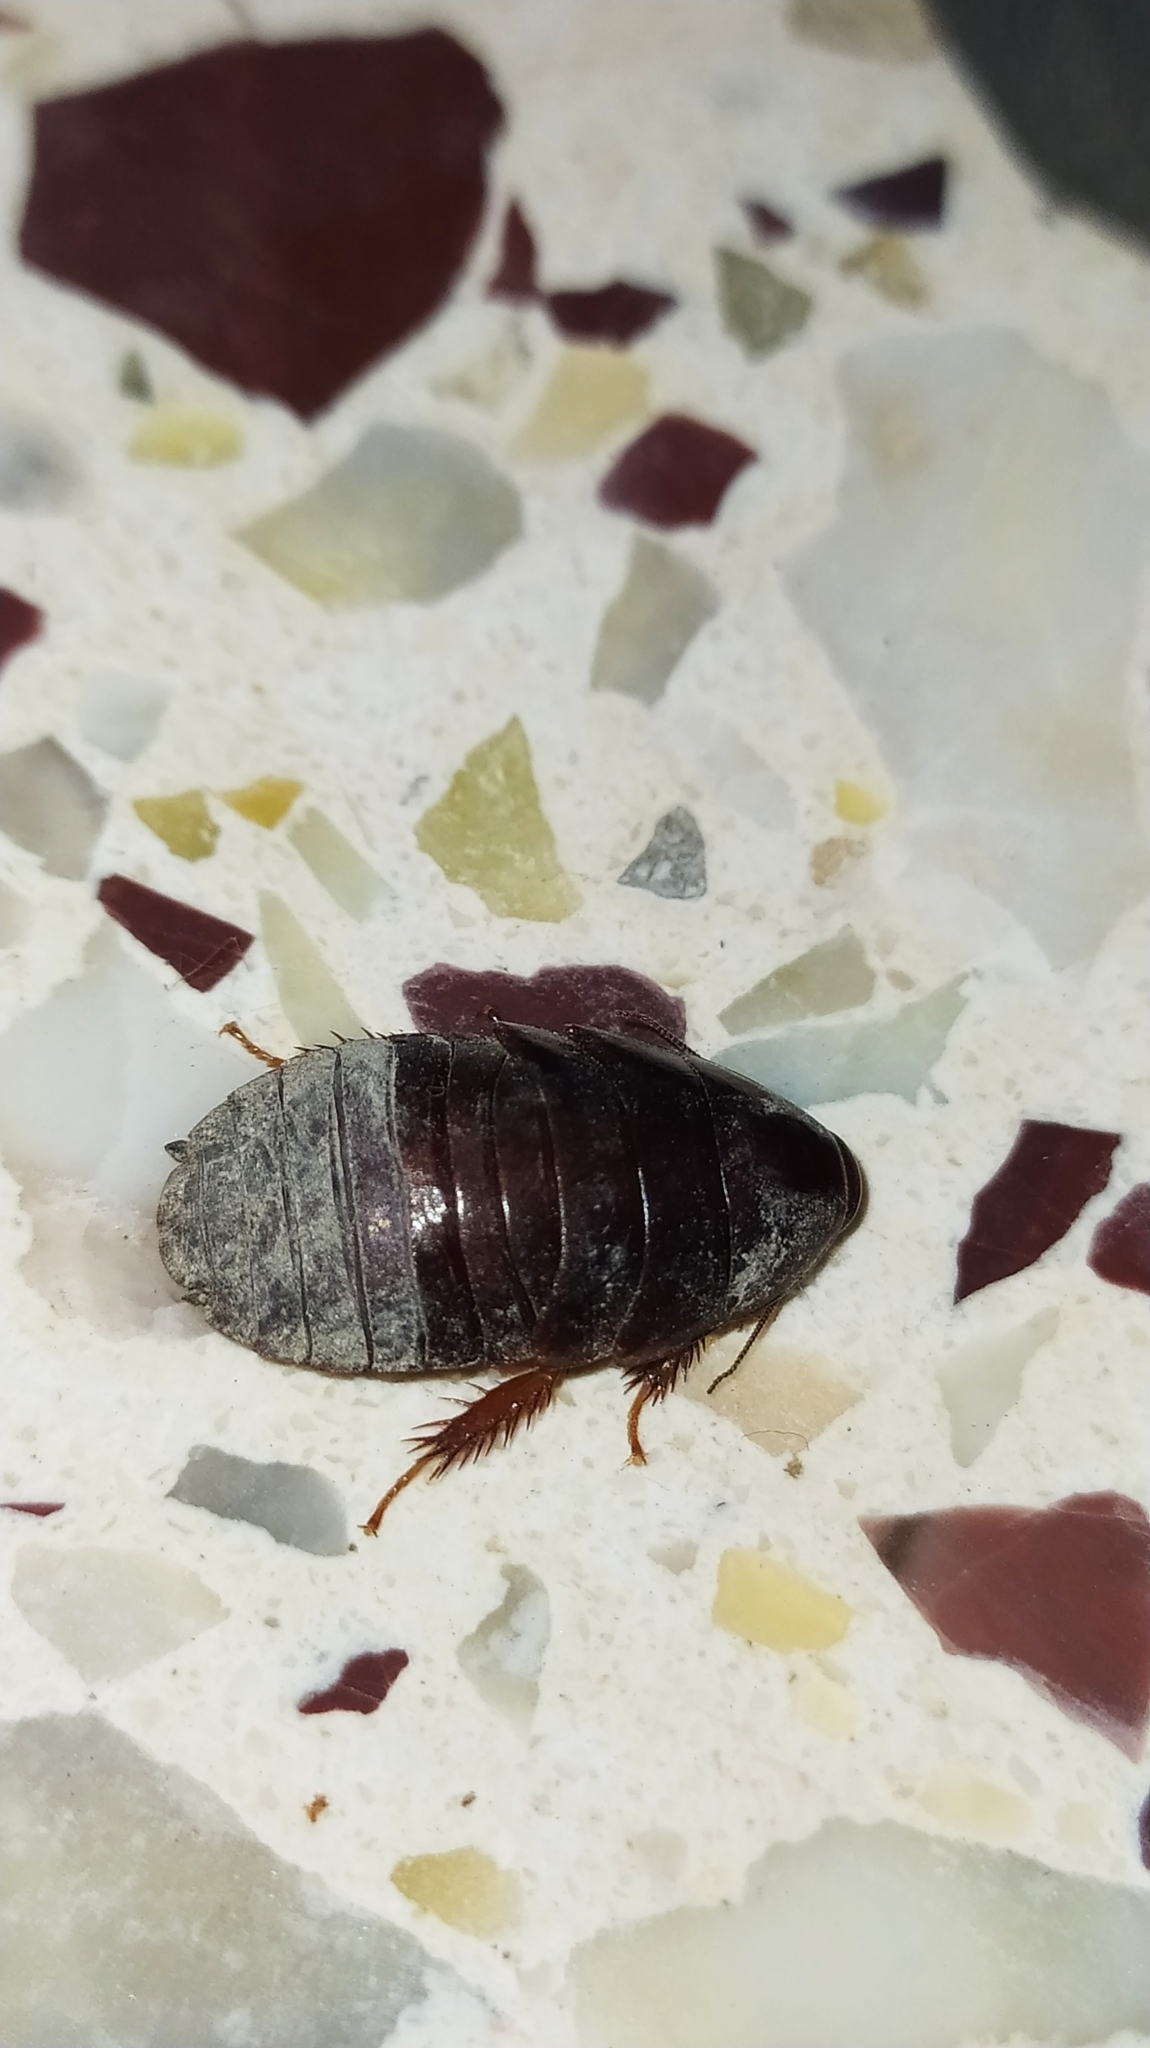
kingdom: Animalia
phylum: Arthropoda
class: Insecta
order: Blattodea
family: Blaberidae
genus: Pycnoscelus
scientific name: Pycnoscelus surinamensis
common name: Surinam cockroach
